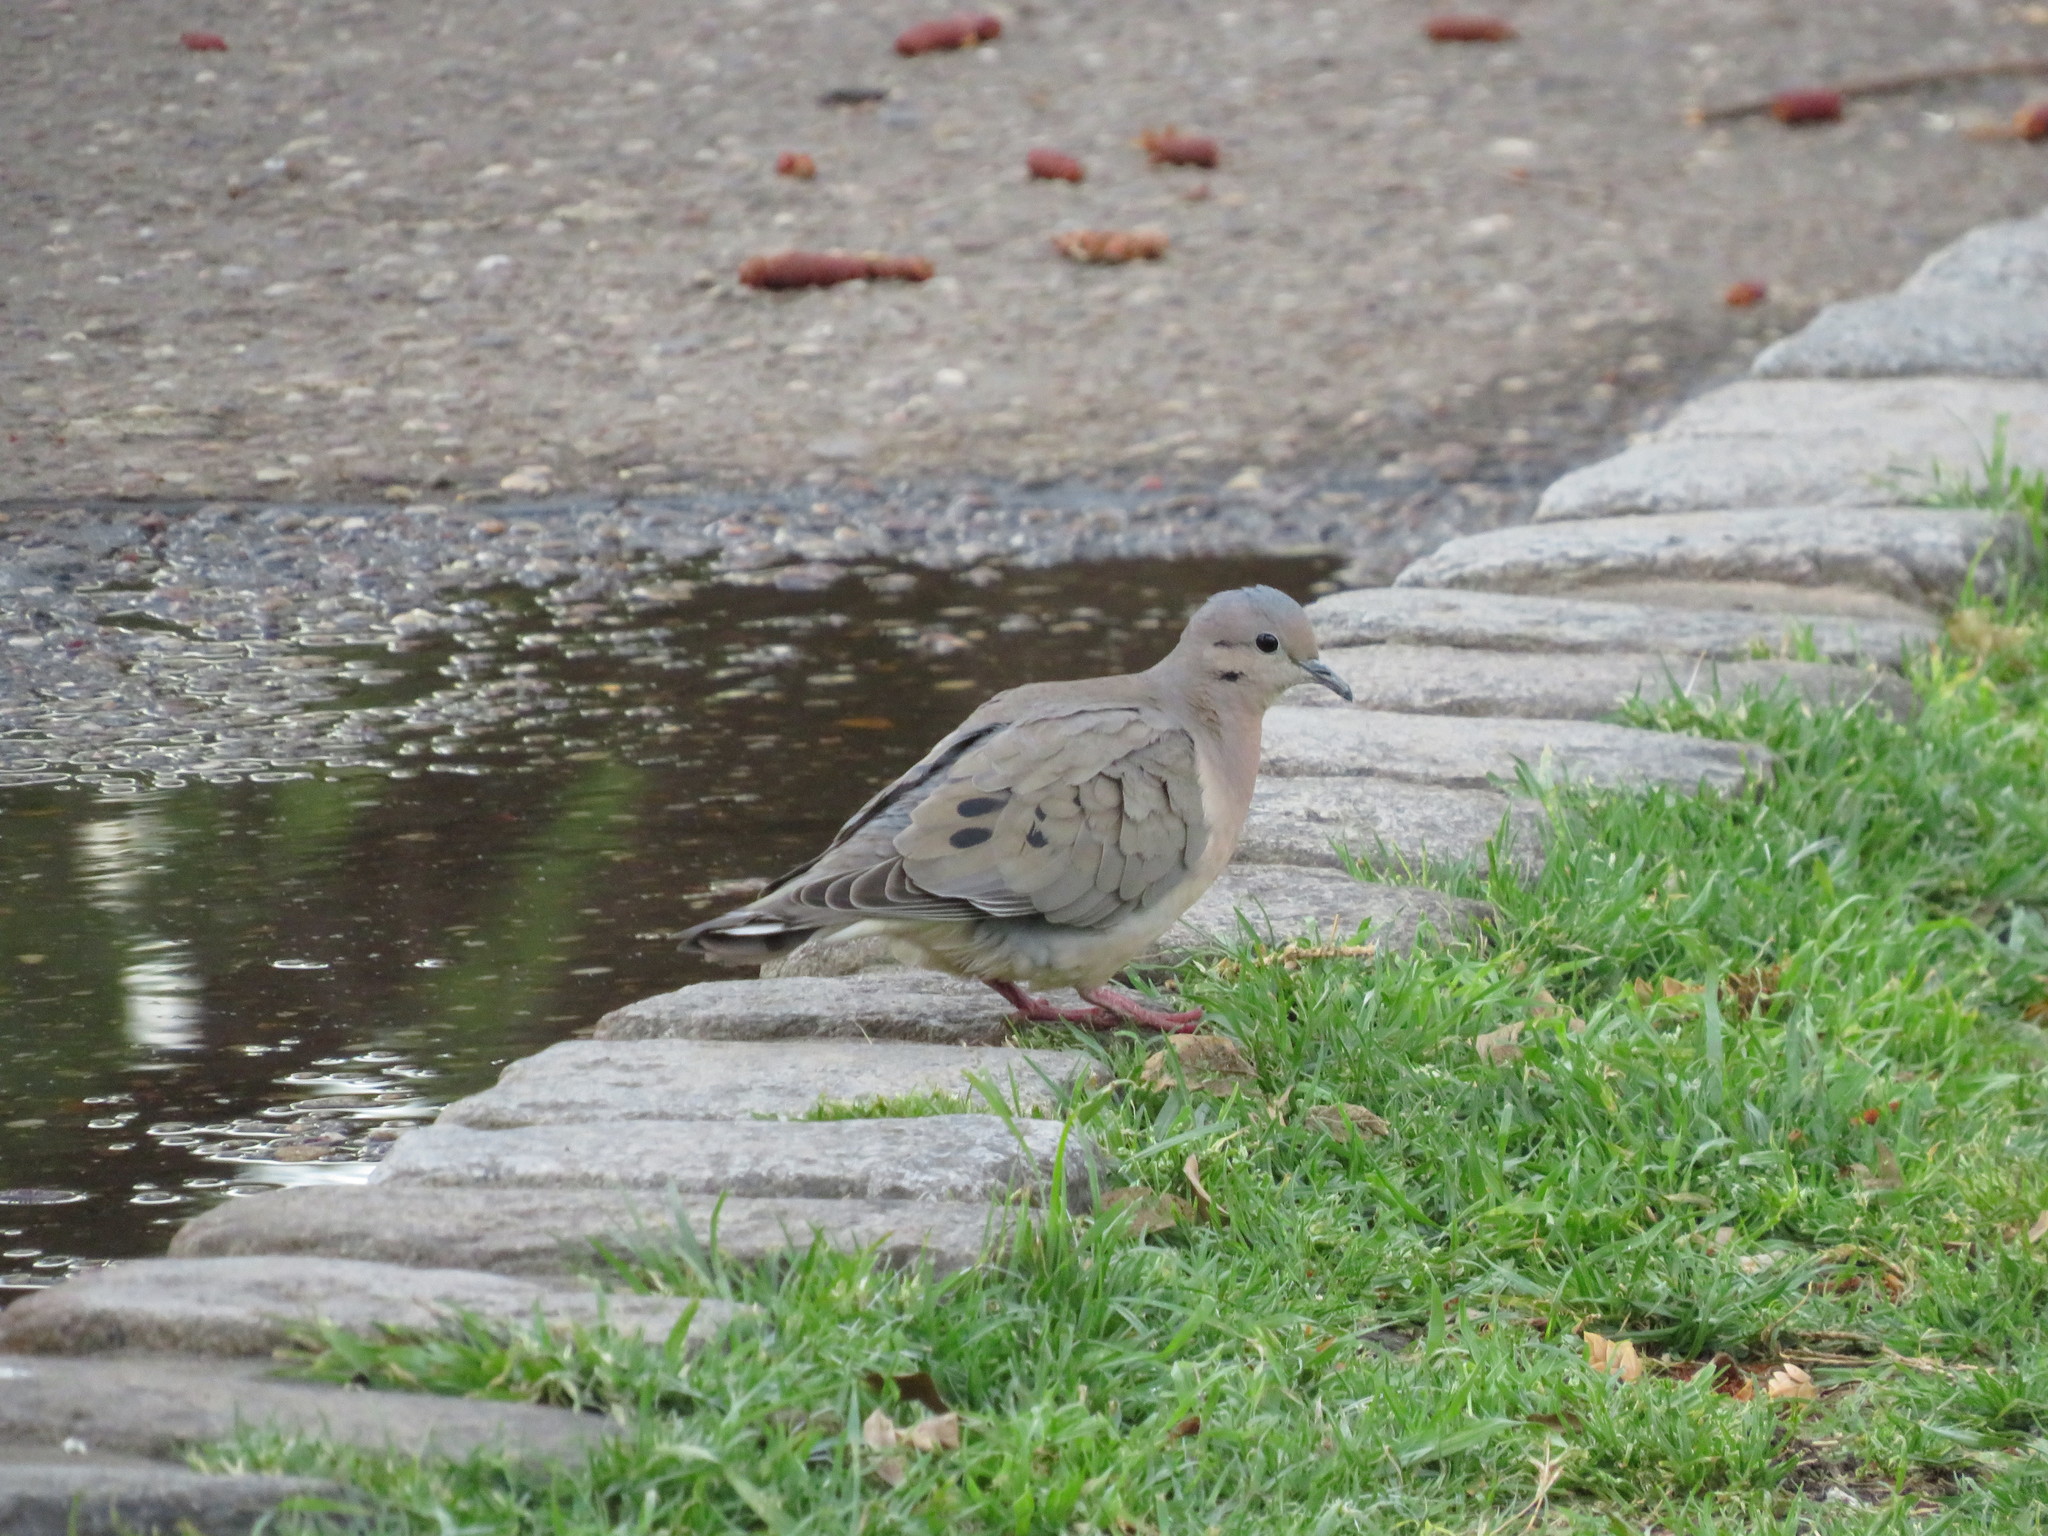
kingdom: Animalia
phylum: Chordata
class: Aves
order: Columbiformes
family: Columbidae
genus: Zenaida
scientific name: Zenaida auriculata
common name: Eared dove
